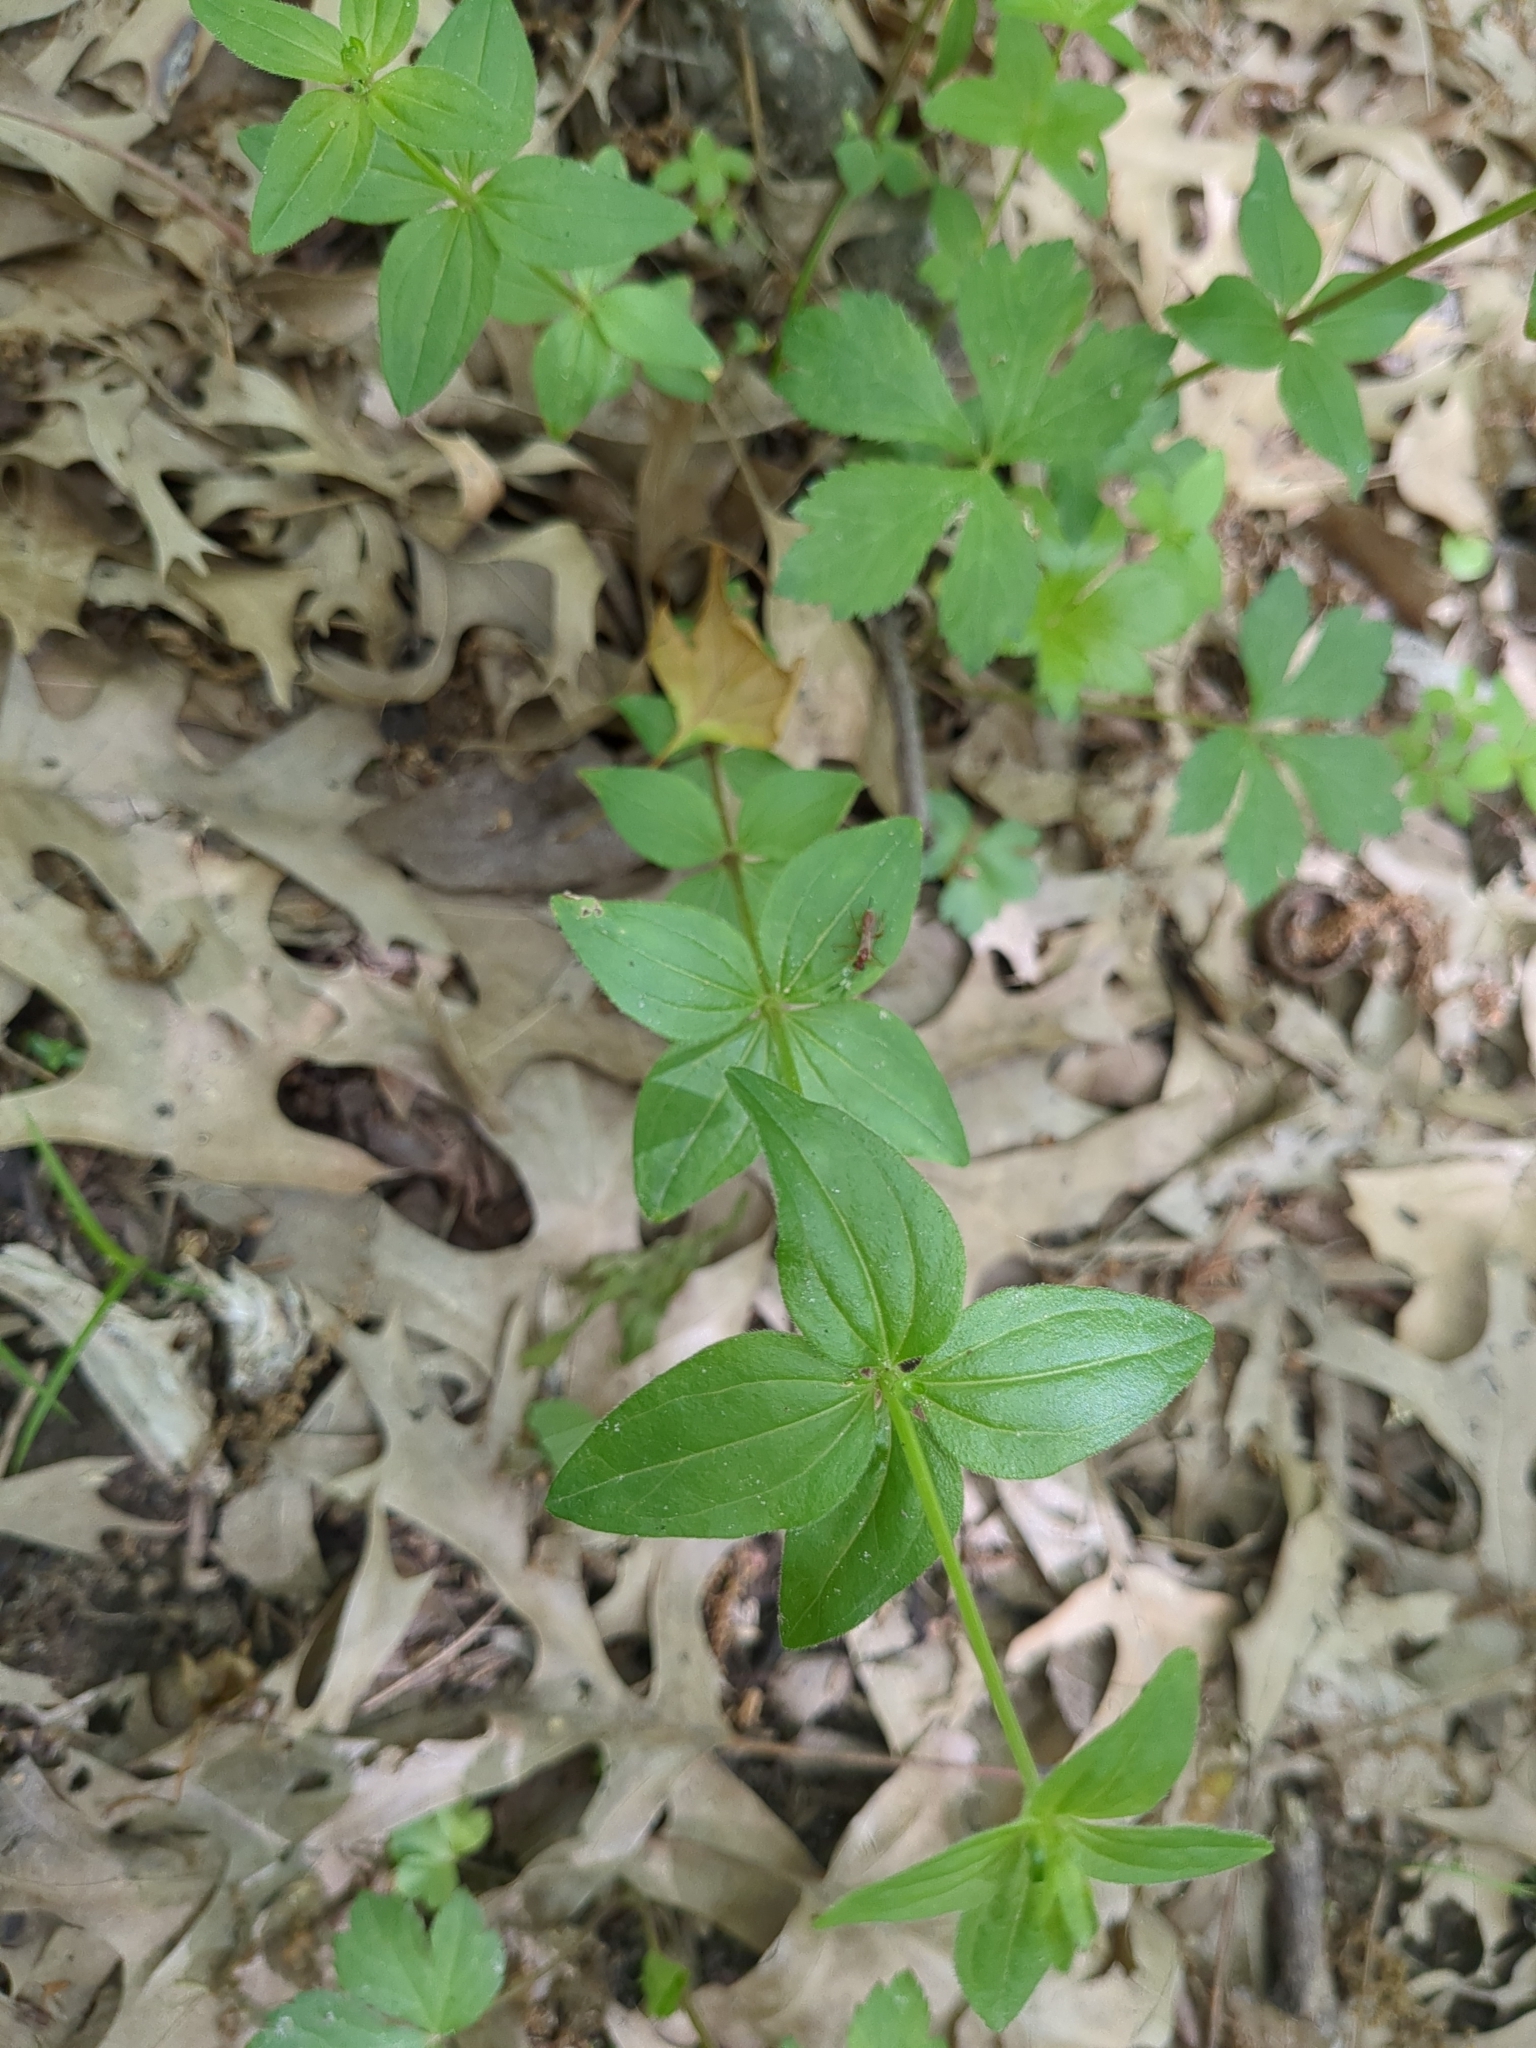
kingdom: Plantae
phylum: Tracheophyta
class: Magnoliopsida
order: Gentianales
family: Rubiaceae
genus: Galium
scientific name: Galium circaezans
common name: Forest bedstraw
